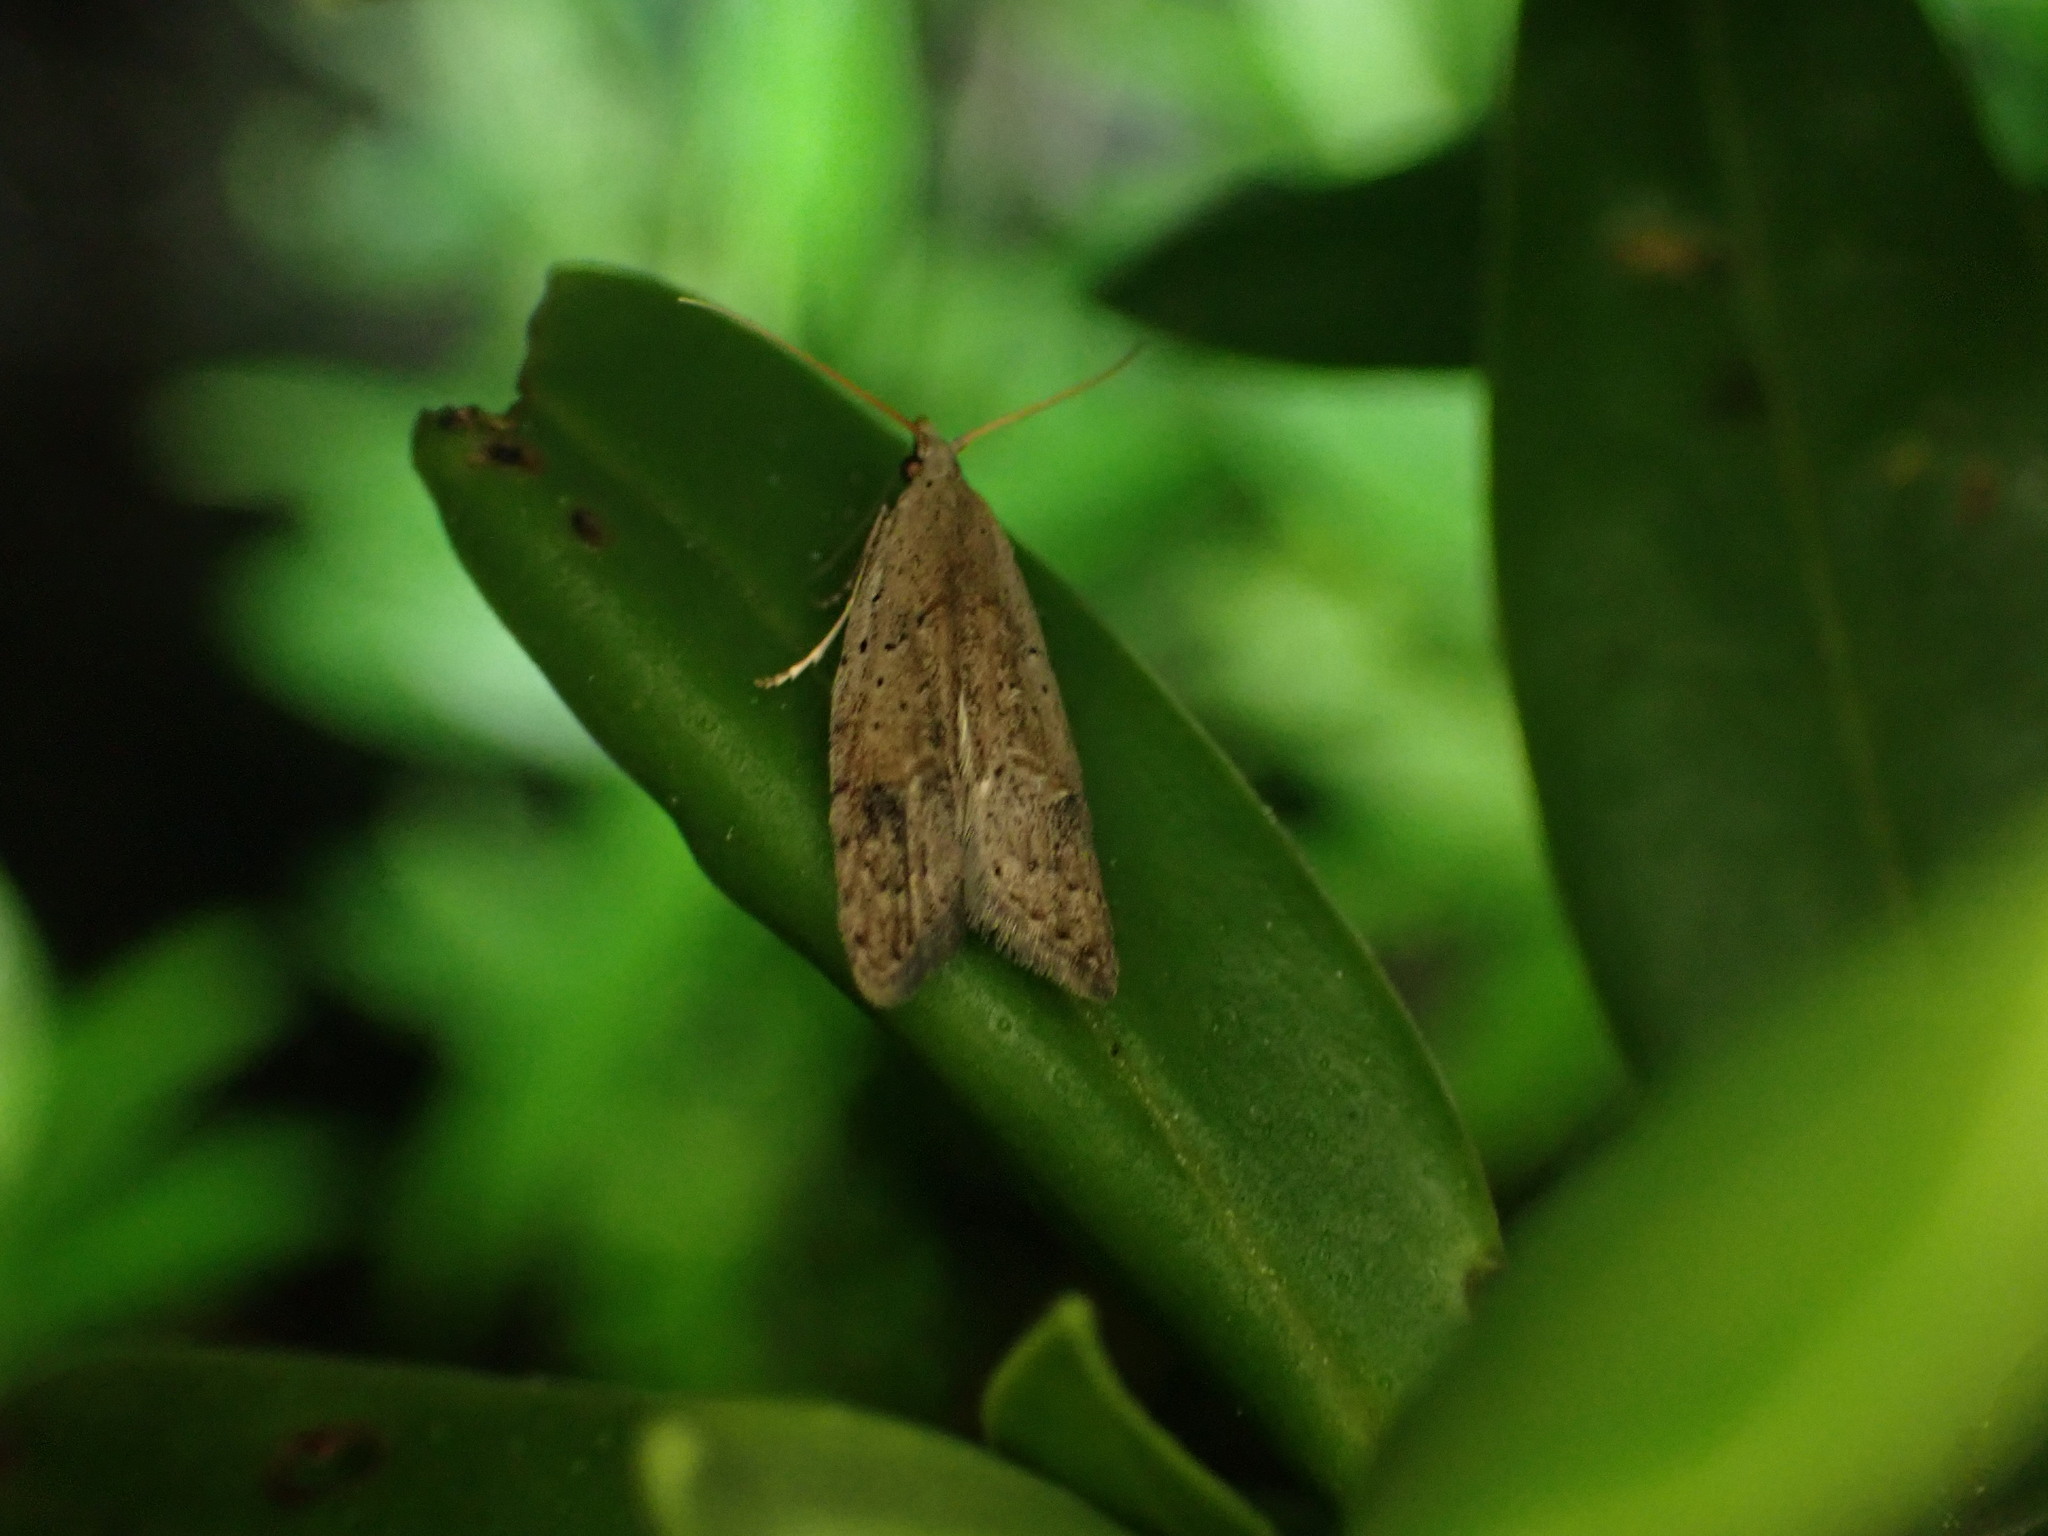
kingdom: Animalia
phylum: Arthropoda
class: Insecta
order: Lepidoptera
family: Carposinidae
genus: Carposina
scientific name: Carposina rubophaga
